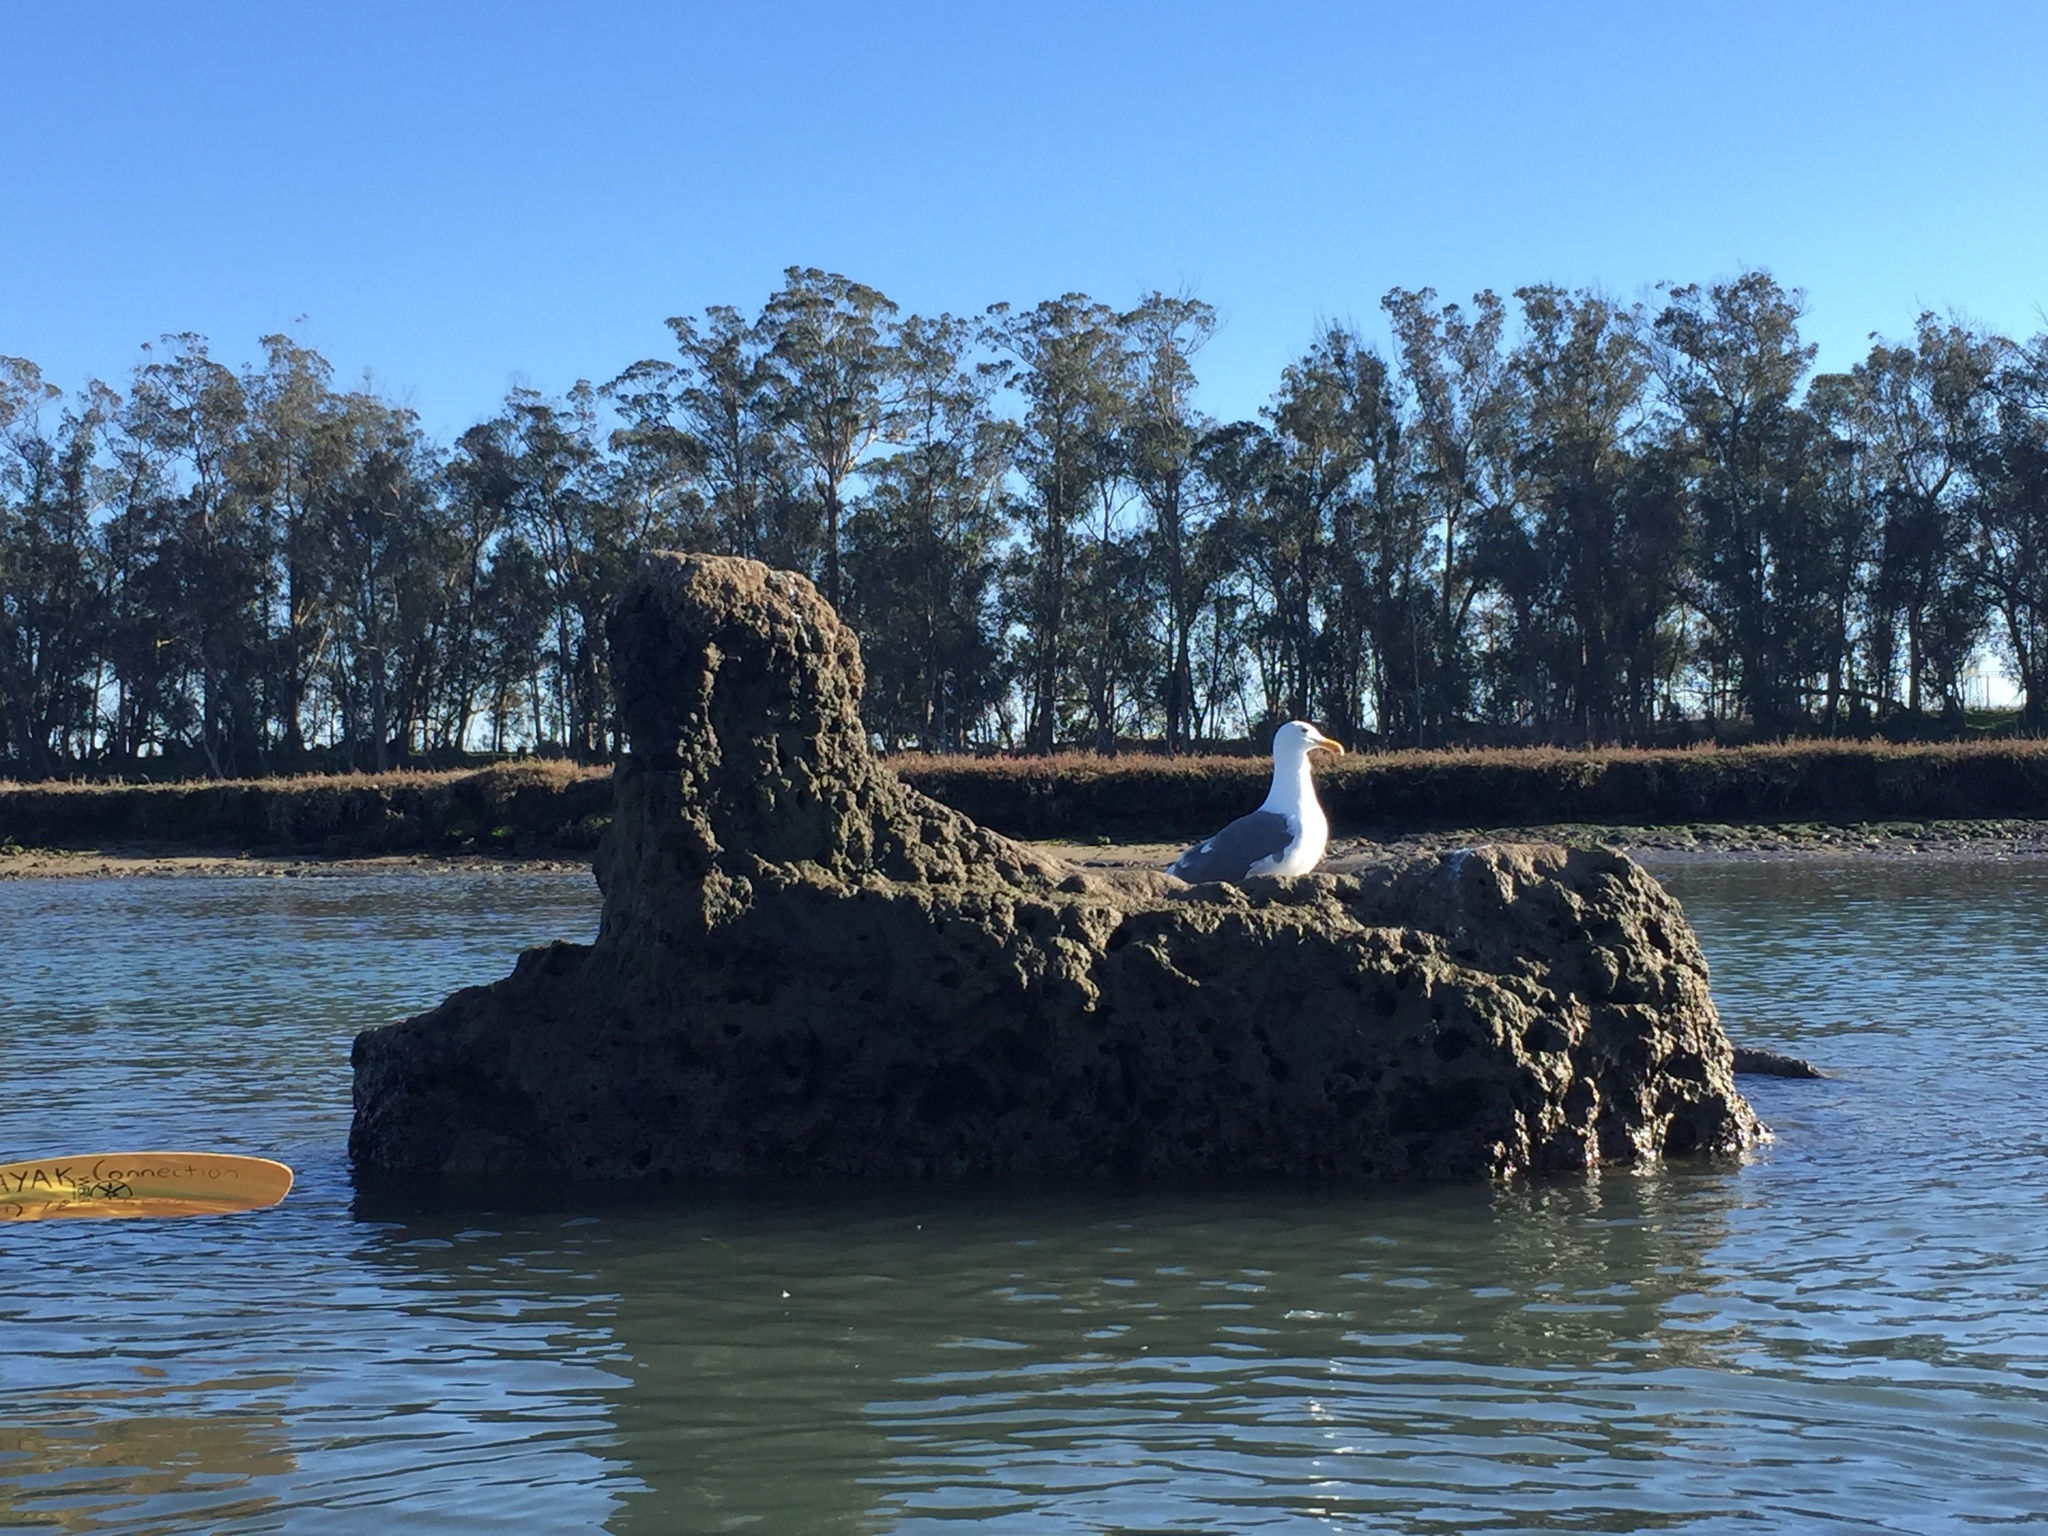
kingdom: Animalia
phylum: Chordata
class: Aves
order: Charadriiformes
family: Laridae
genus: Larus
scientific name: Larus occidentalis
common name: Western gull
